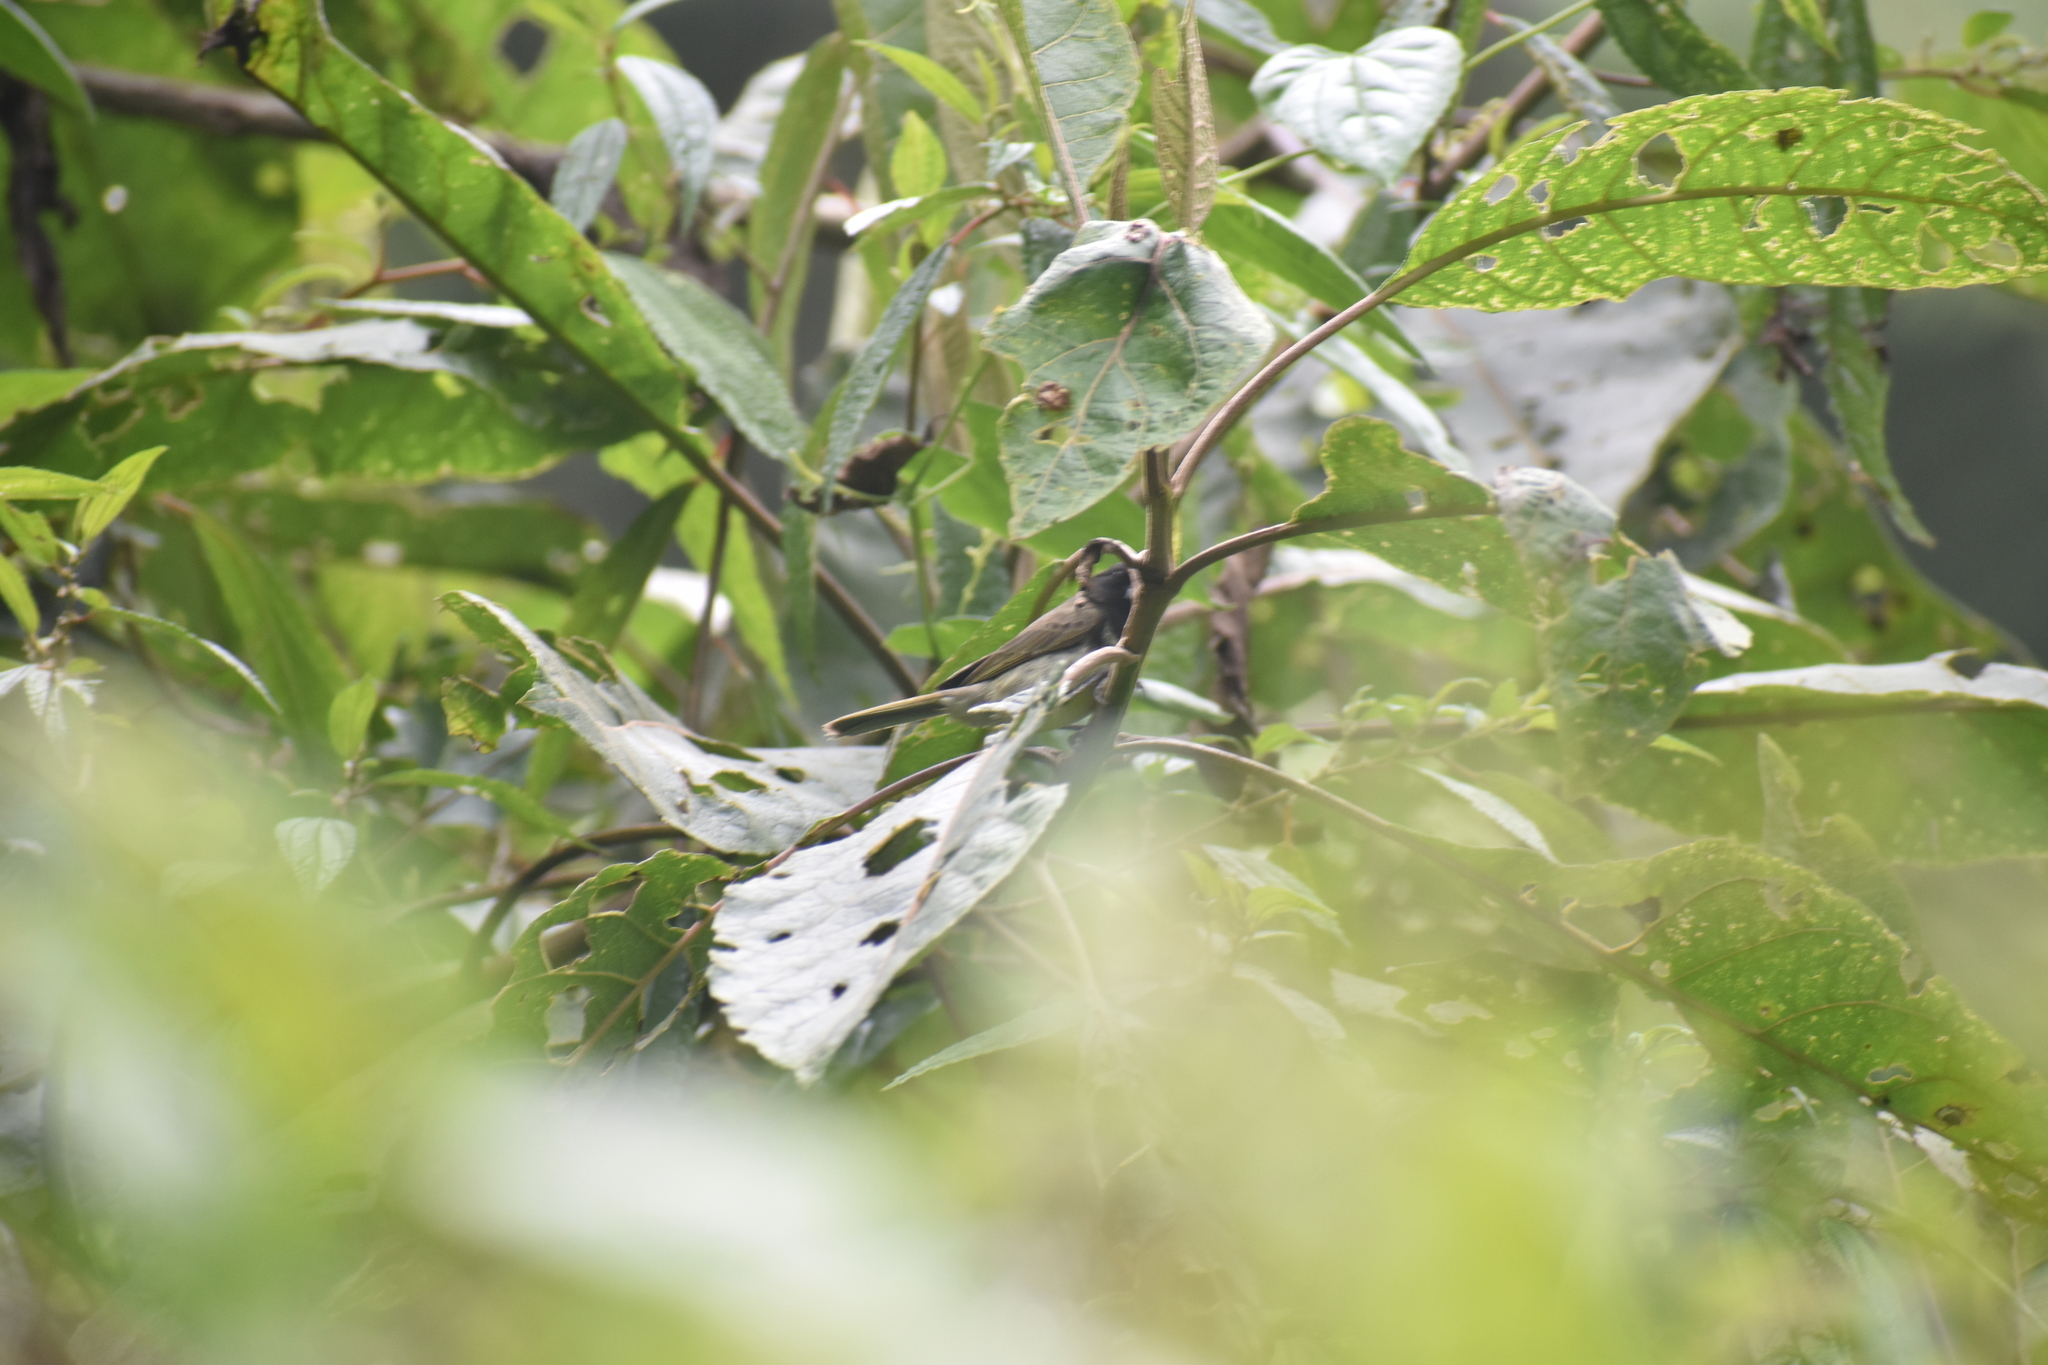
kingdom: Animalia
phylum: Chordata
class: Aves
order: Passeriformes
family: Thraupidae
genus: Sporophila
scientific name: Sporophila nigricollis
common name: Yellow-bellied seedeater
